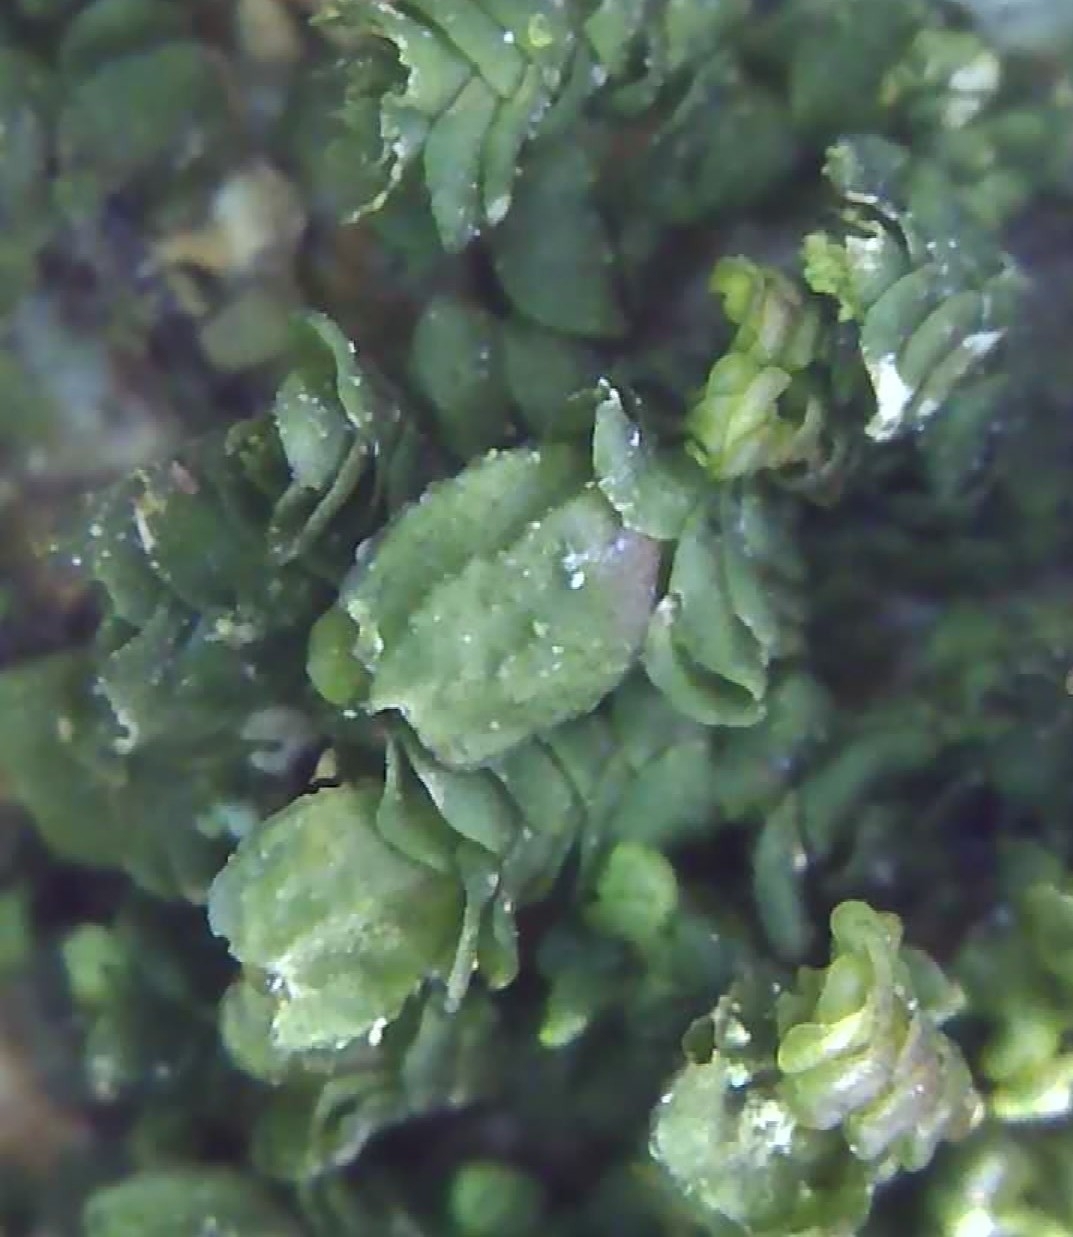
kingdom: Plantae
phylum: Marchantiophyta
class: Jungermanniopsida
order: Porellales
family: Frullaniaceae
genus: Frullania
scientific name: Frullania dilatata
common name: Dilated scalewort
